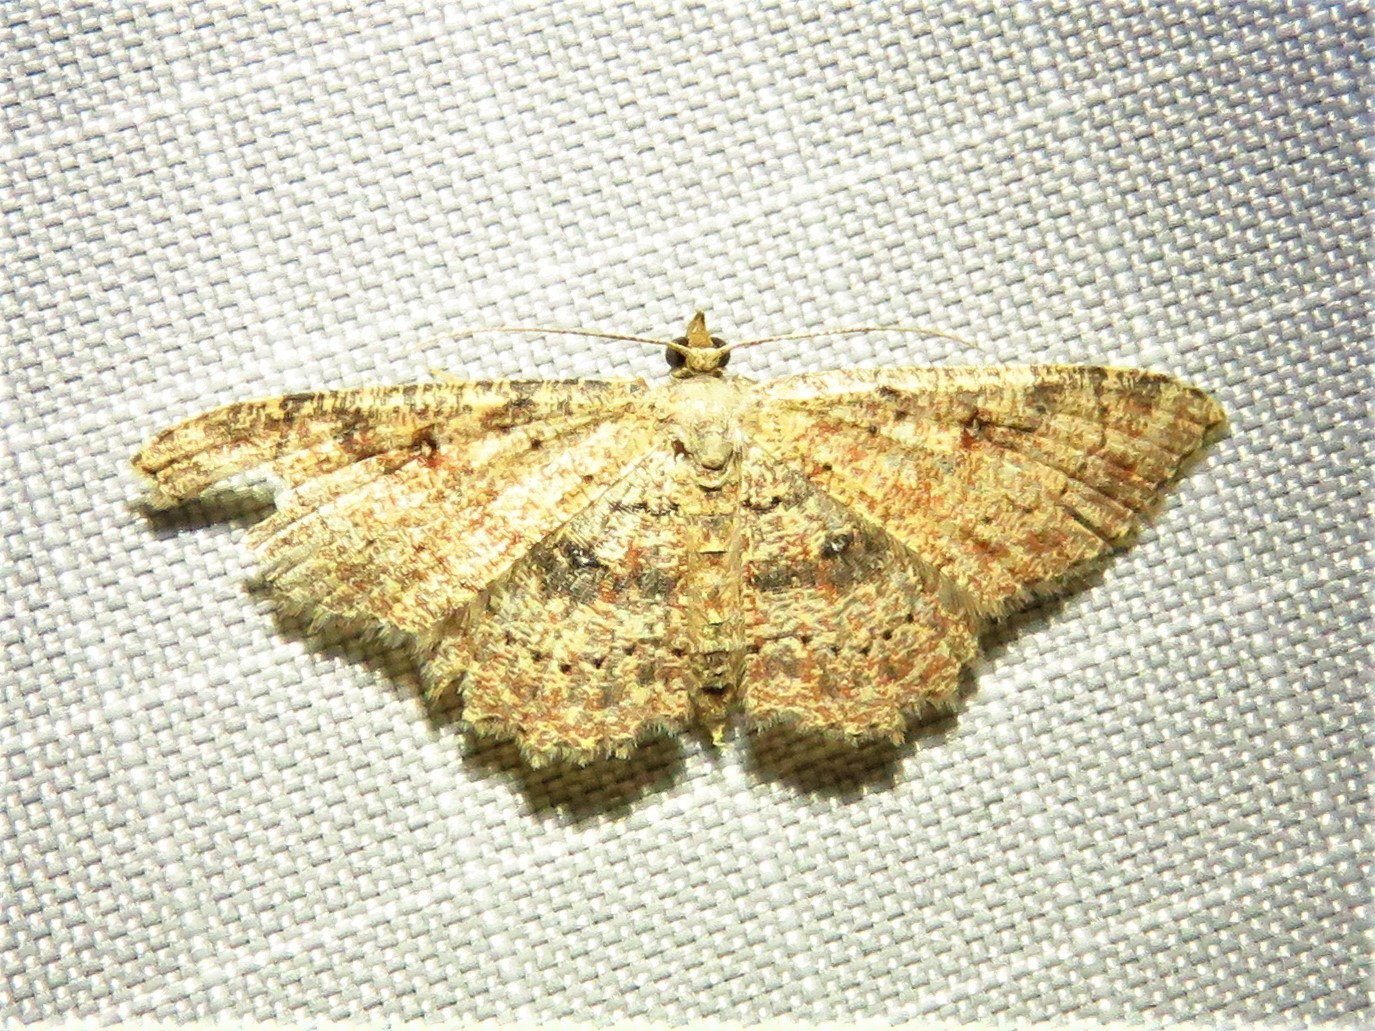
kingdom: Animalia
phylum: Arthropoda
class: Insecta
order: Lepidoptera
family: Geometridae
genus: Cyclophora
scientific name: Cyclophora nanaria
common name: Cankerworm
